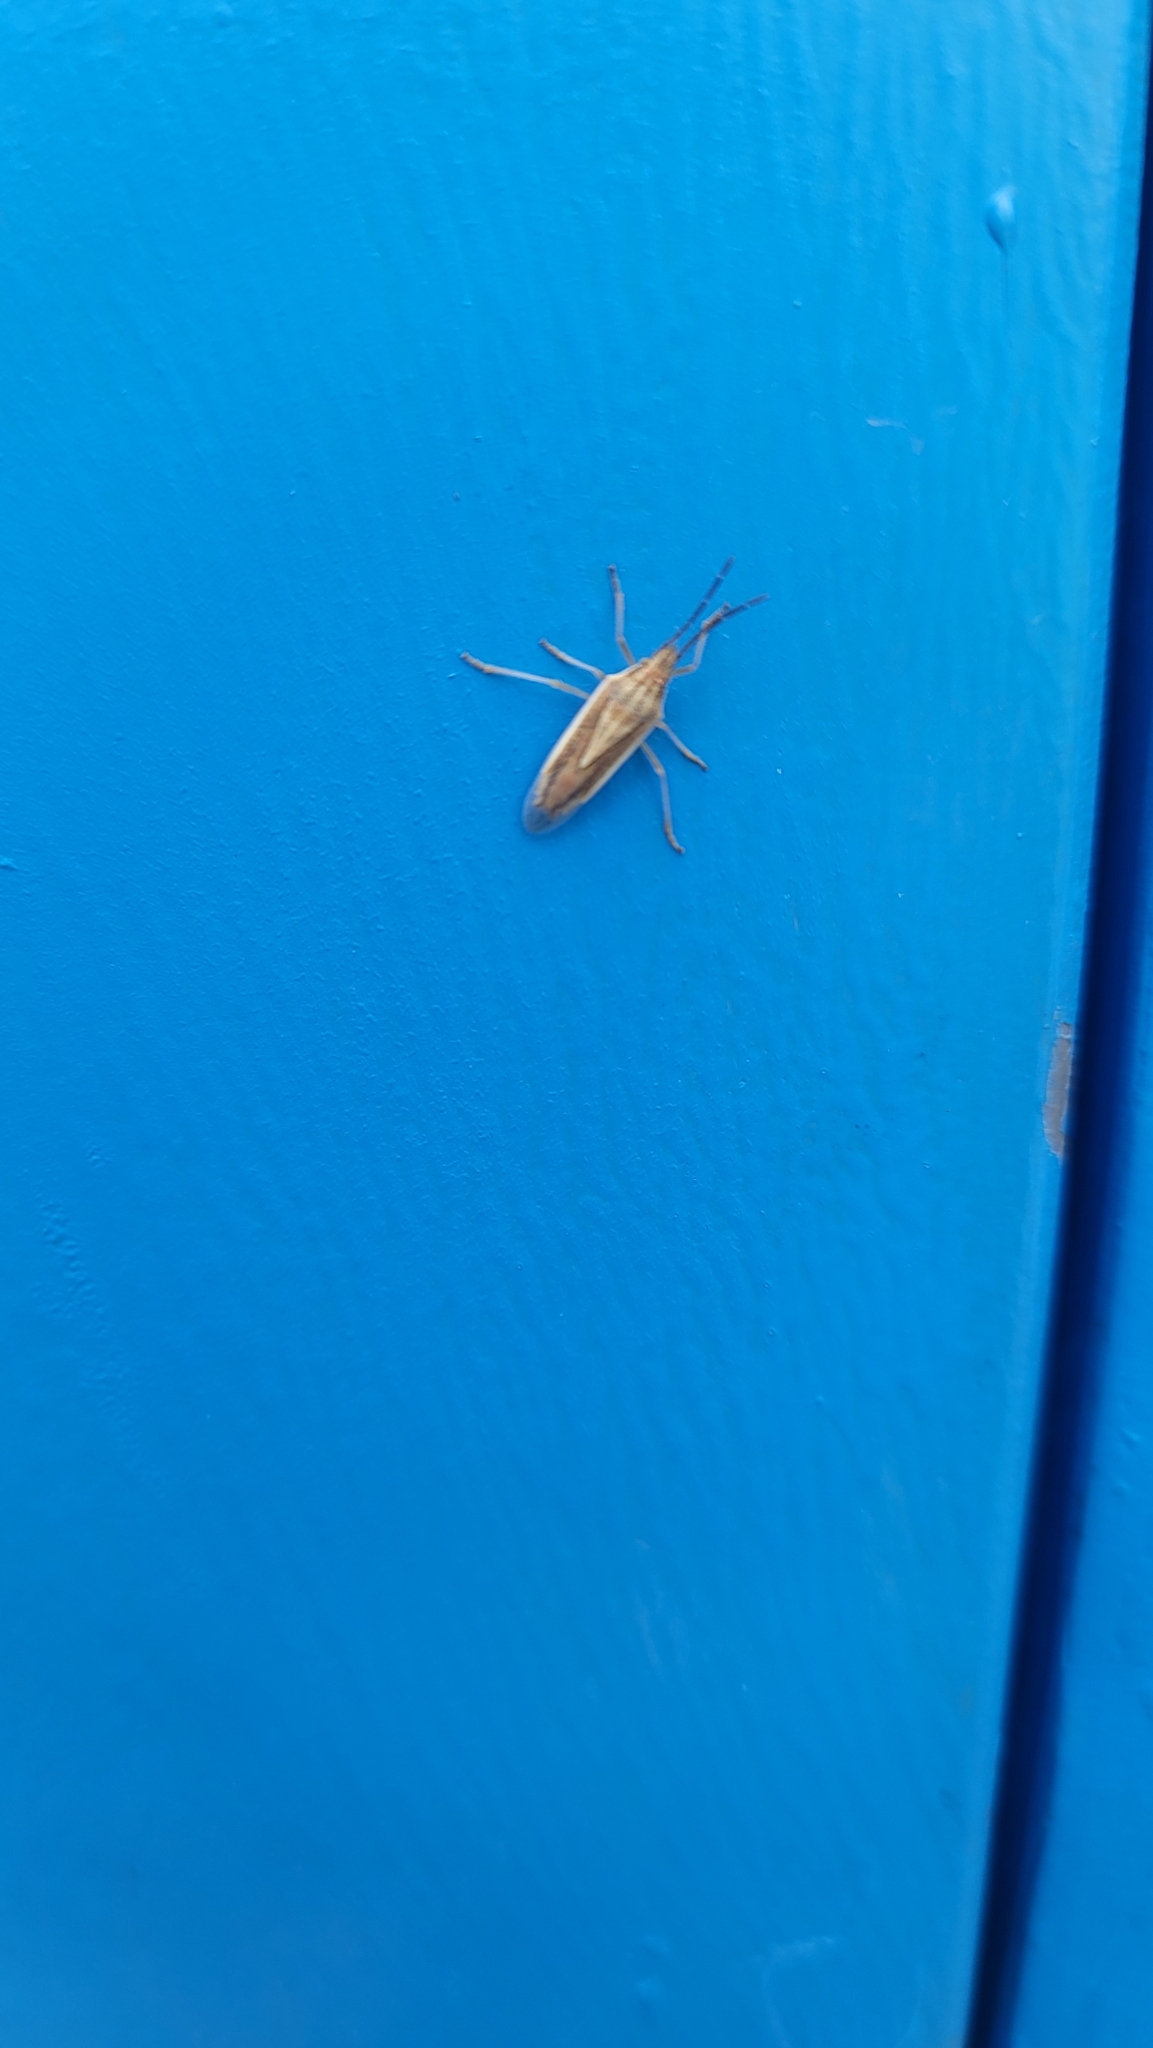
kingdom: Animalia
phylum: Arthropoda
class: Insecta
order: Hemiptera
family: Pentatomidae
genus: Mecidea
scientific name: Mecidea
